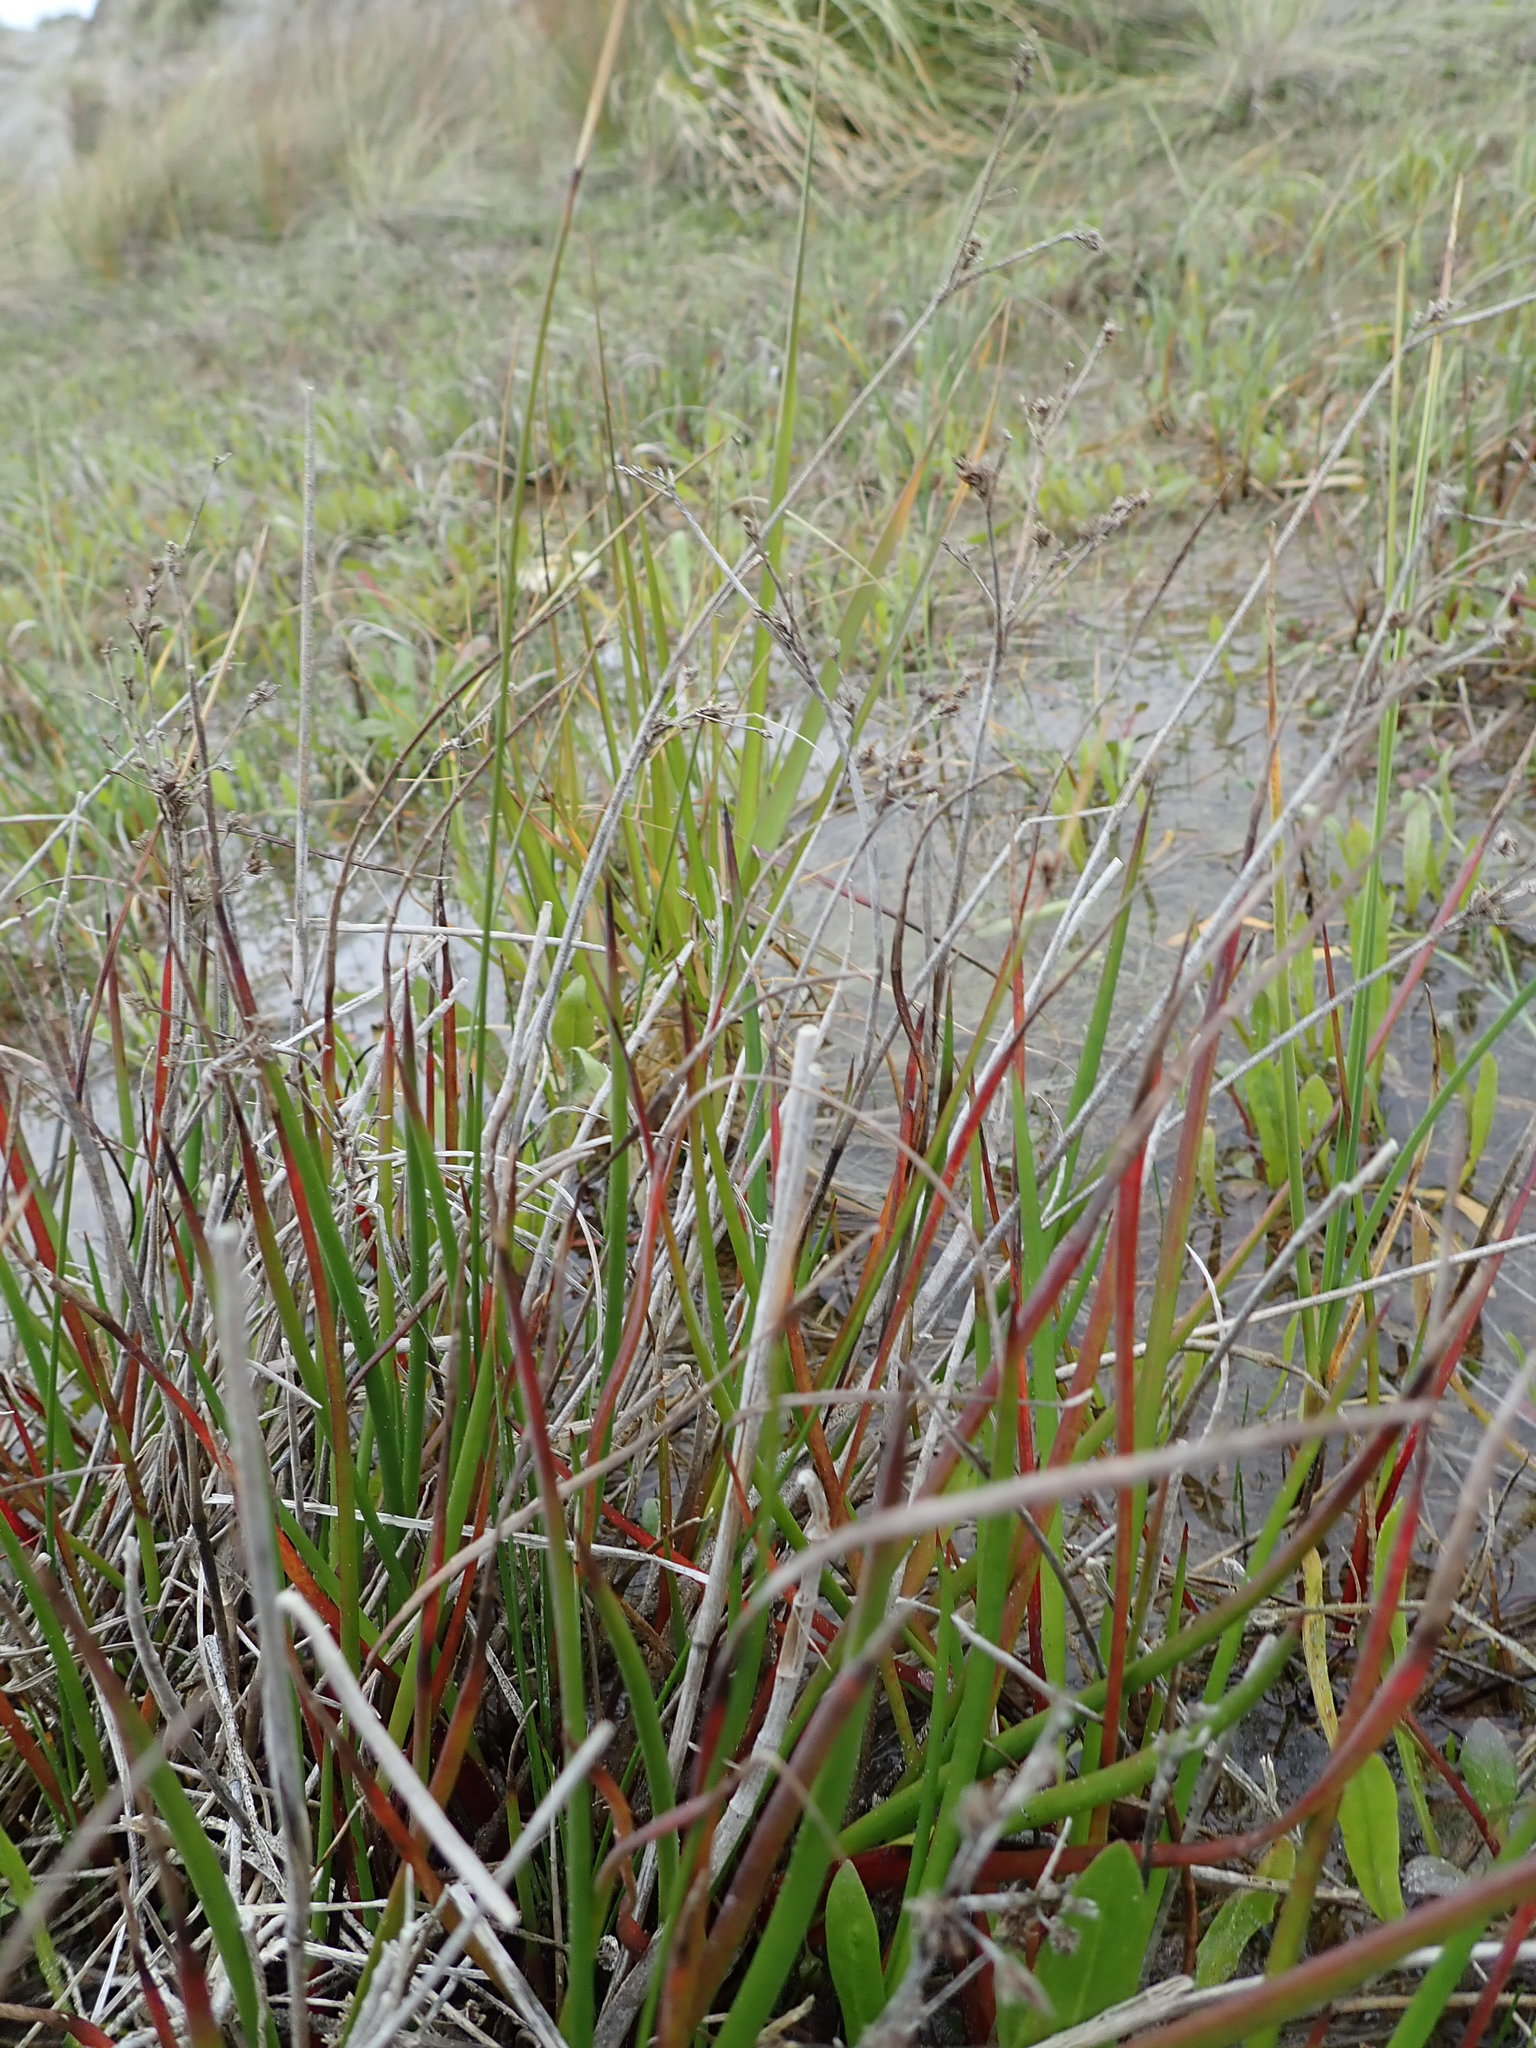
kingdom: Plantae
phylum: Tracheophyta
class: Liliopsida
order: Poales
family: Juncaceae
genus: Juncus
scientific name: Juncus articulatus
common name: Jointed rush
